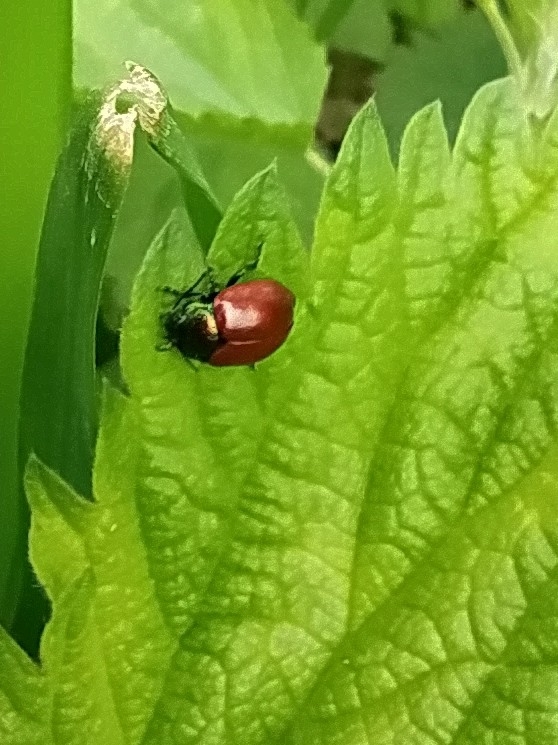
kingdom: Animalia
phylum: Arthropoda
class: Insecta
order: Coleoptera
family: Chrysomelidae
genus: Chrysomela
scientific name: Chrysomela polita
